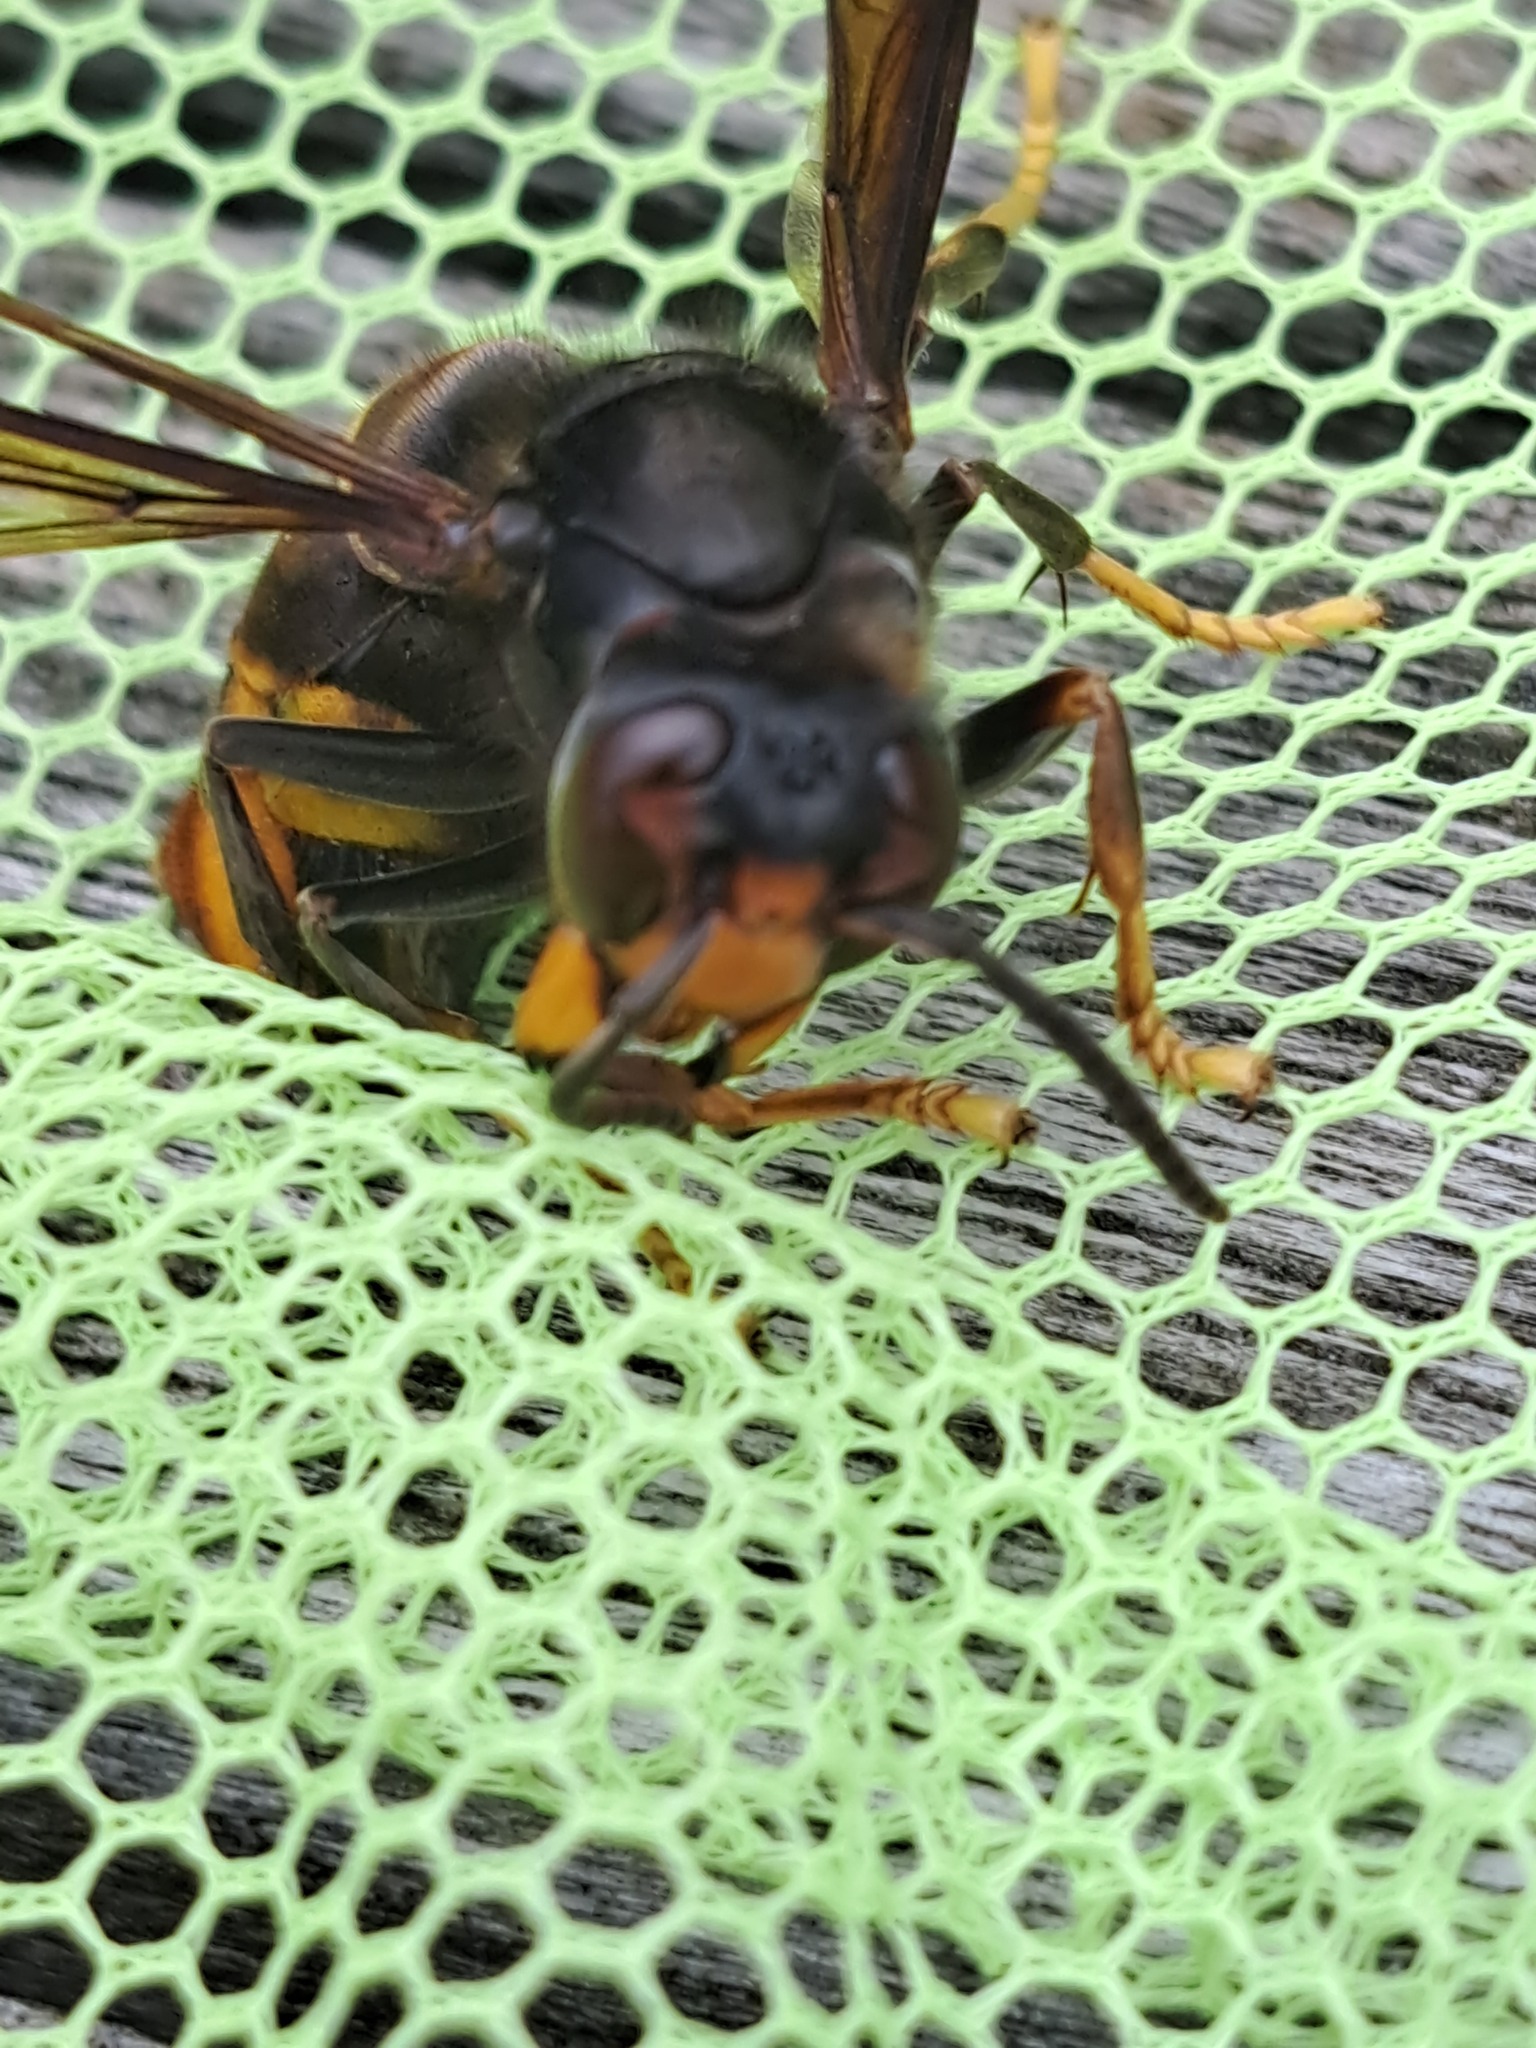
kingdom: Animalia
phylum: Arthropoda
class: Insecta
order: Hymenoptera
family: Vespidae
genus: Vespa
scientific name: Vespa velutina
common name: Asian hornet
